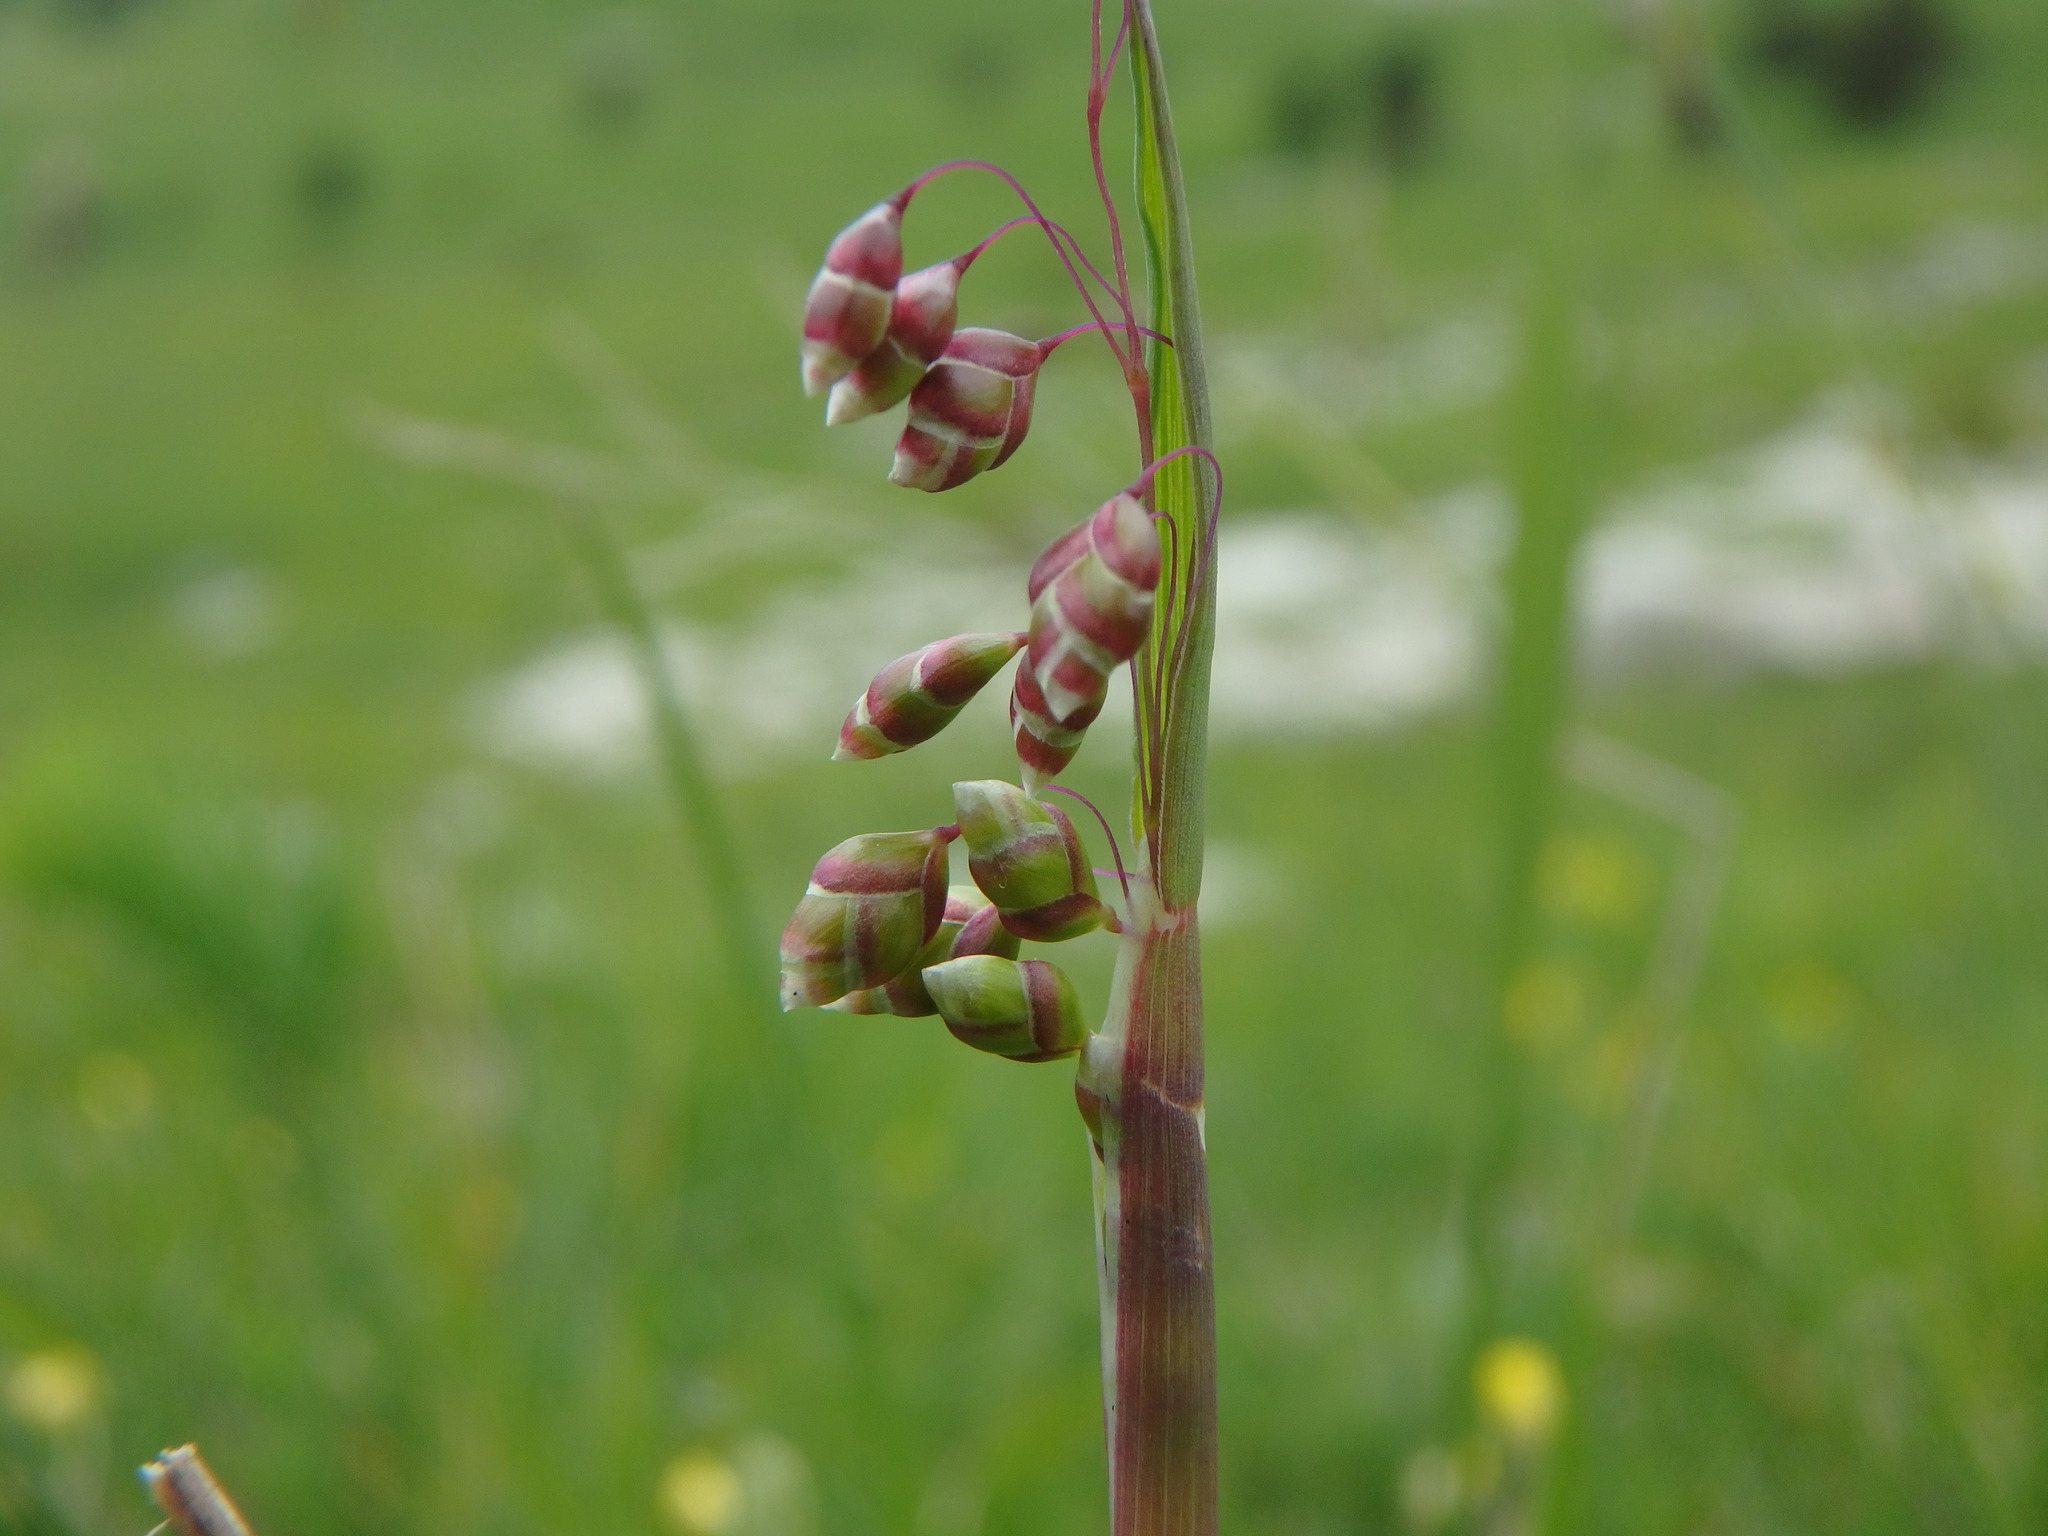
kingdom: Plantae
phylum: Tracheophyta
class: Liliopsida
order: Poales
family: Poaceae
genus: Briza
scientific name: Briza media
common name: Quaking grass
